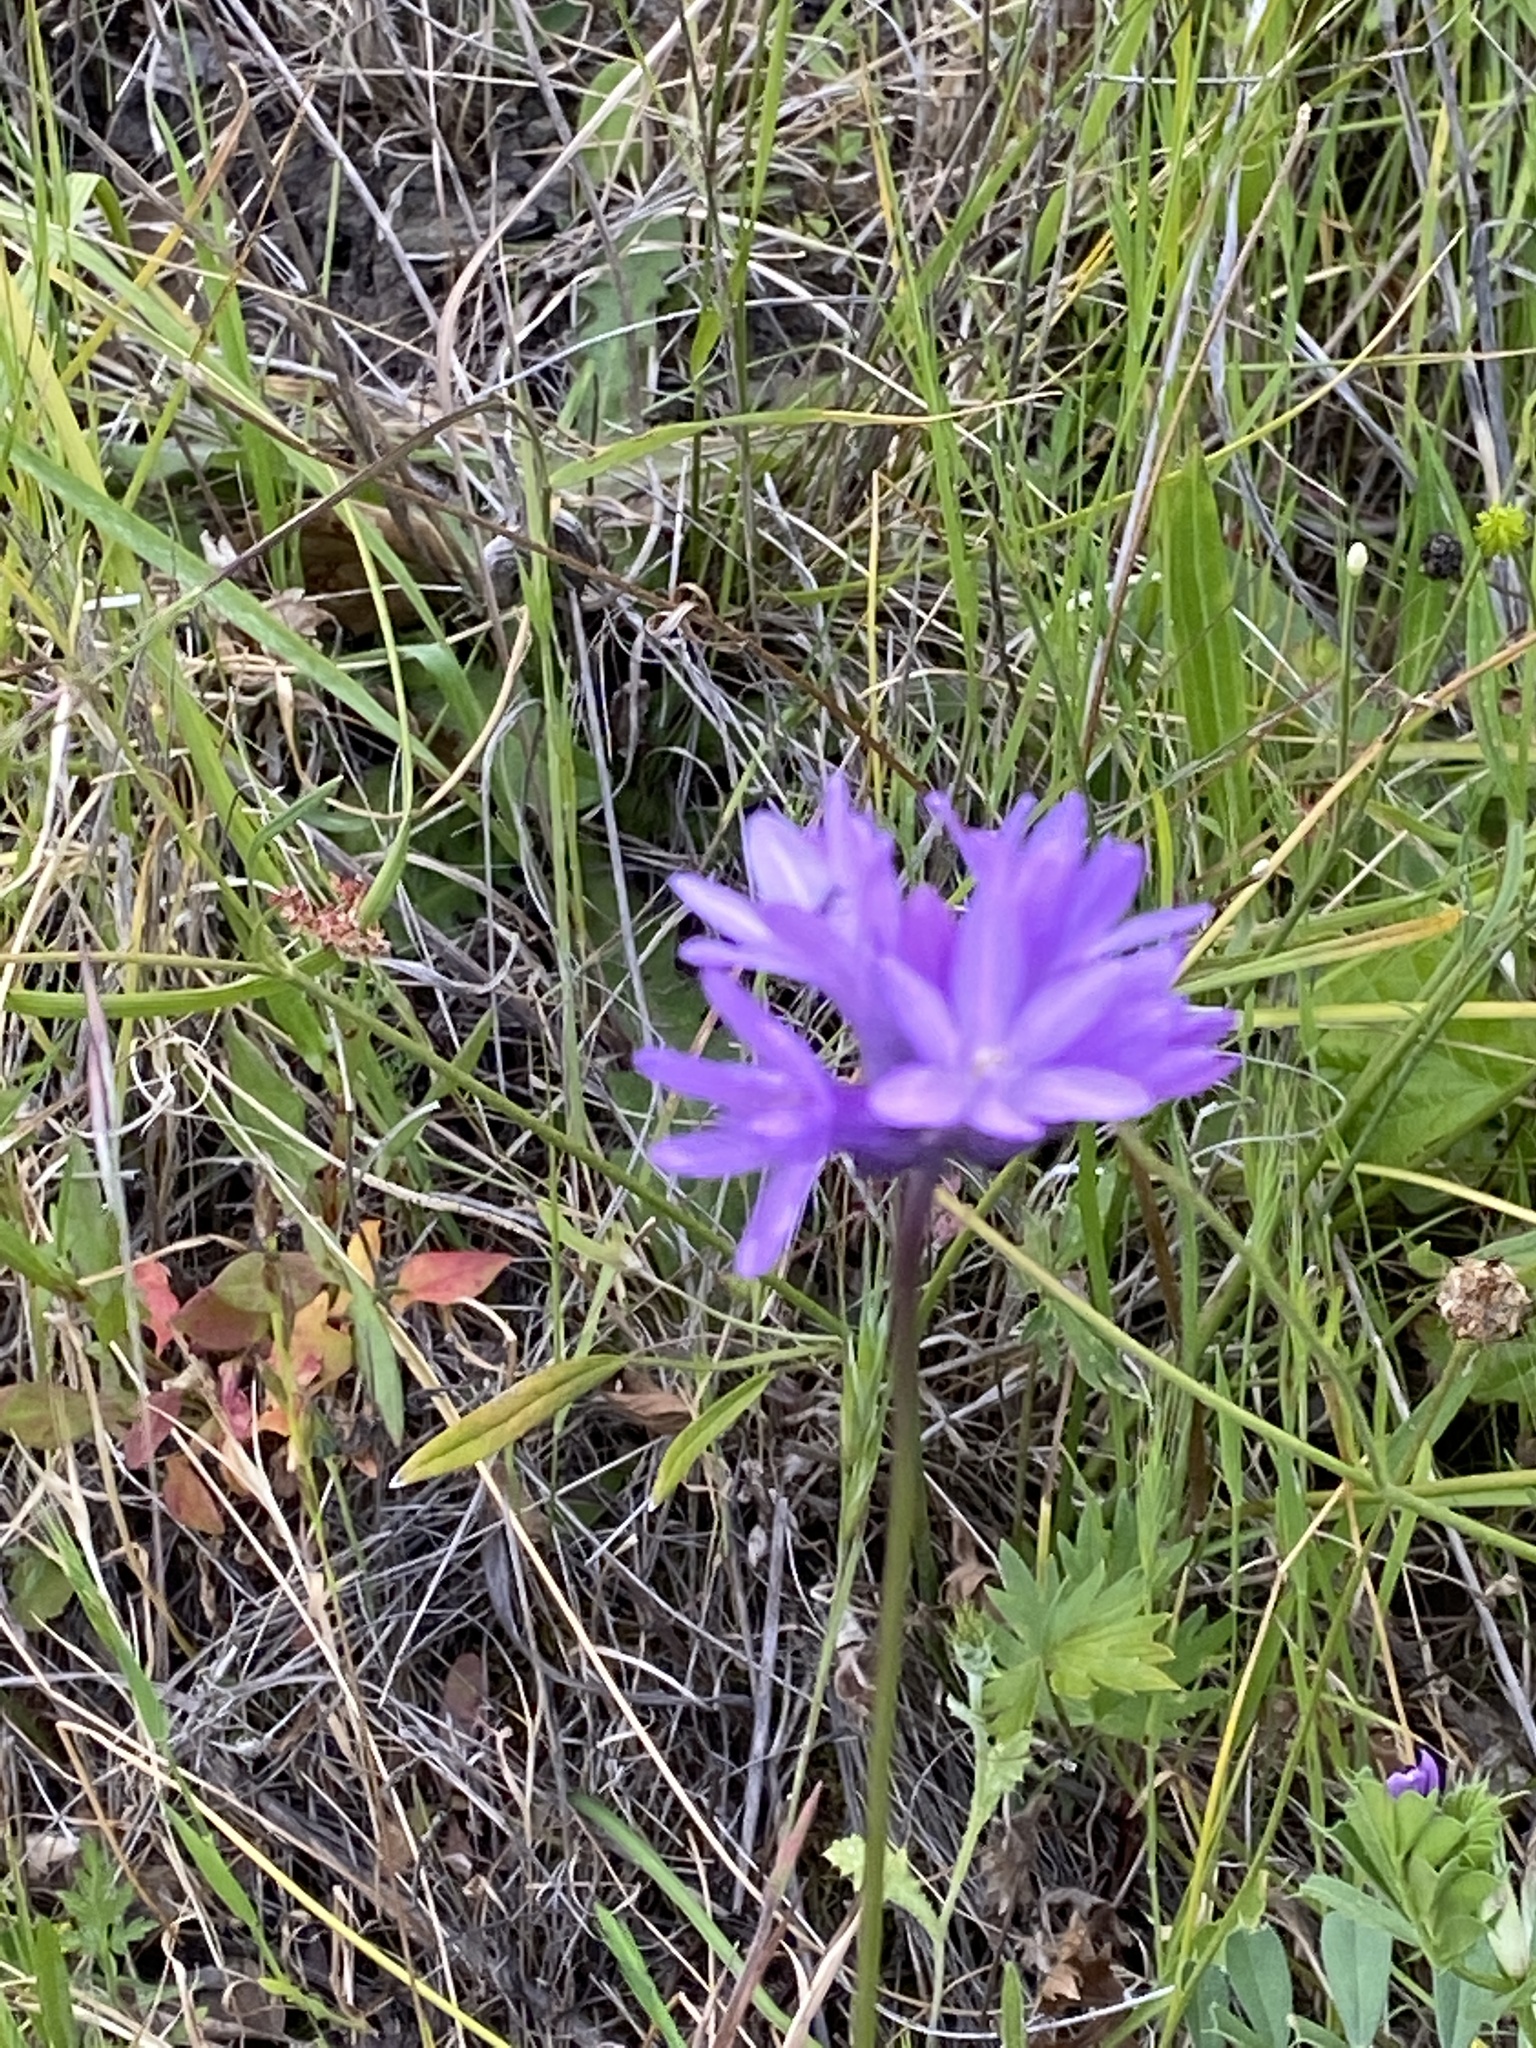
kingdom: Plantae
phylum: Tracheophyta
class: Liliopsida
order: Asparagales
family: Asparagaceae
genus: Dichelostemma
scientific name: Dichelostemma congestum
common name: Fork-tooth ookow
